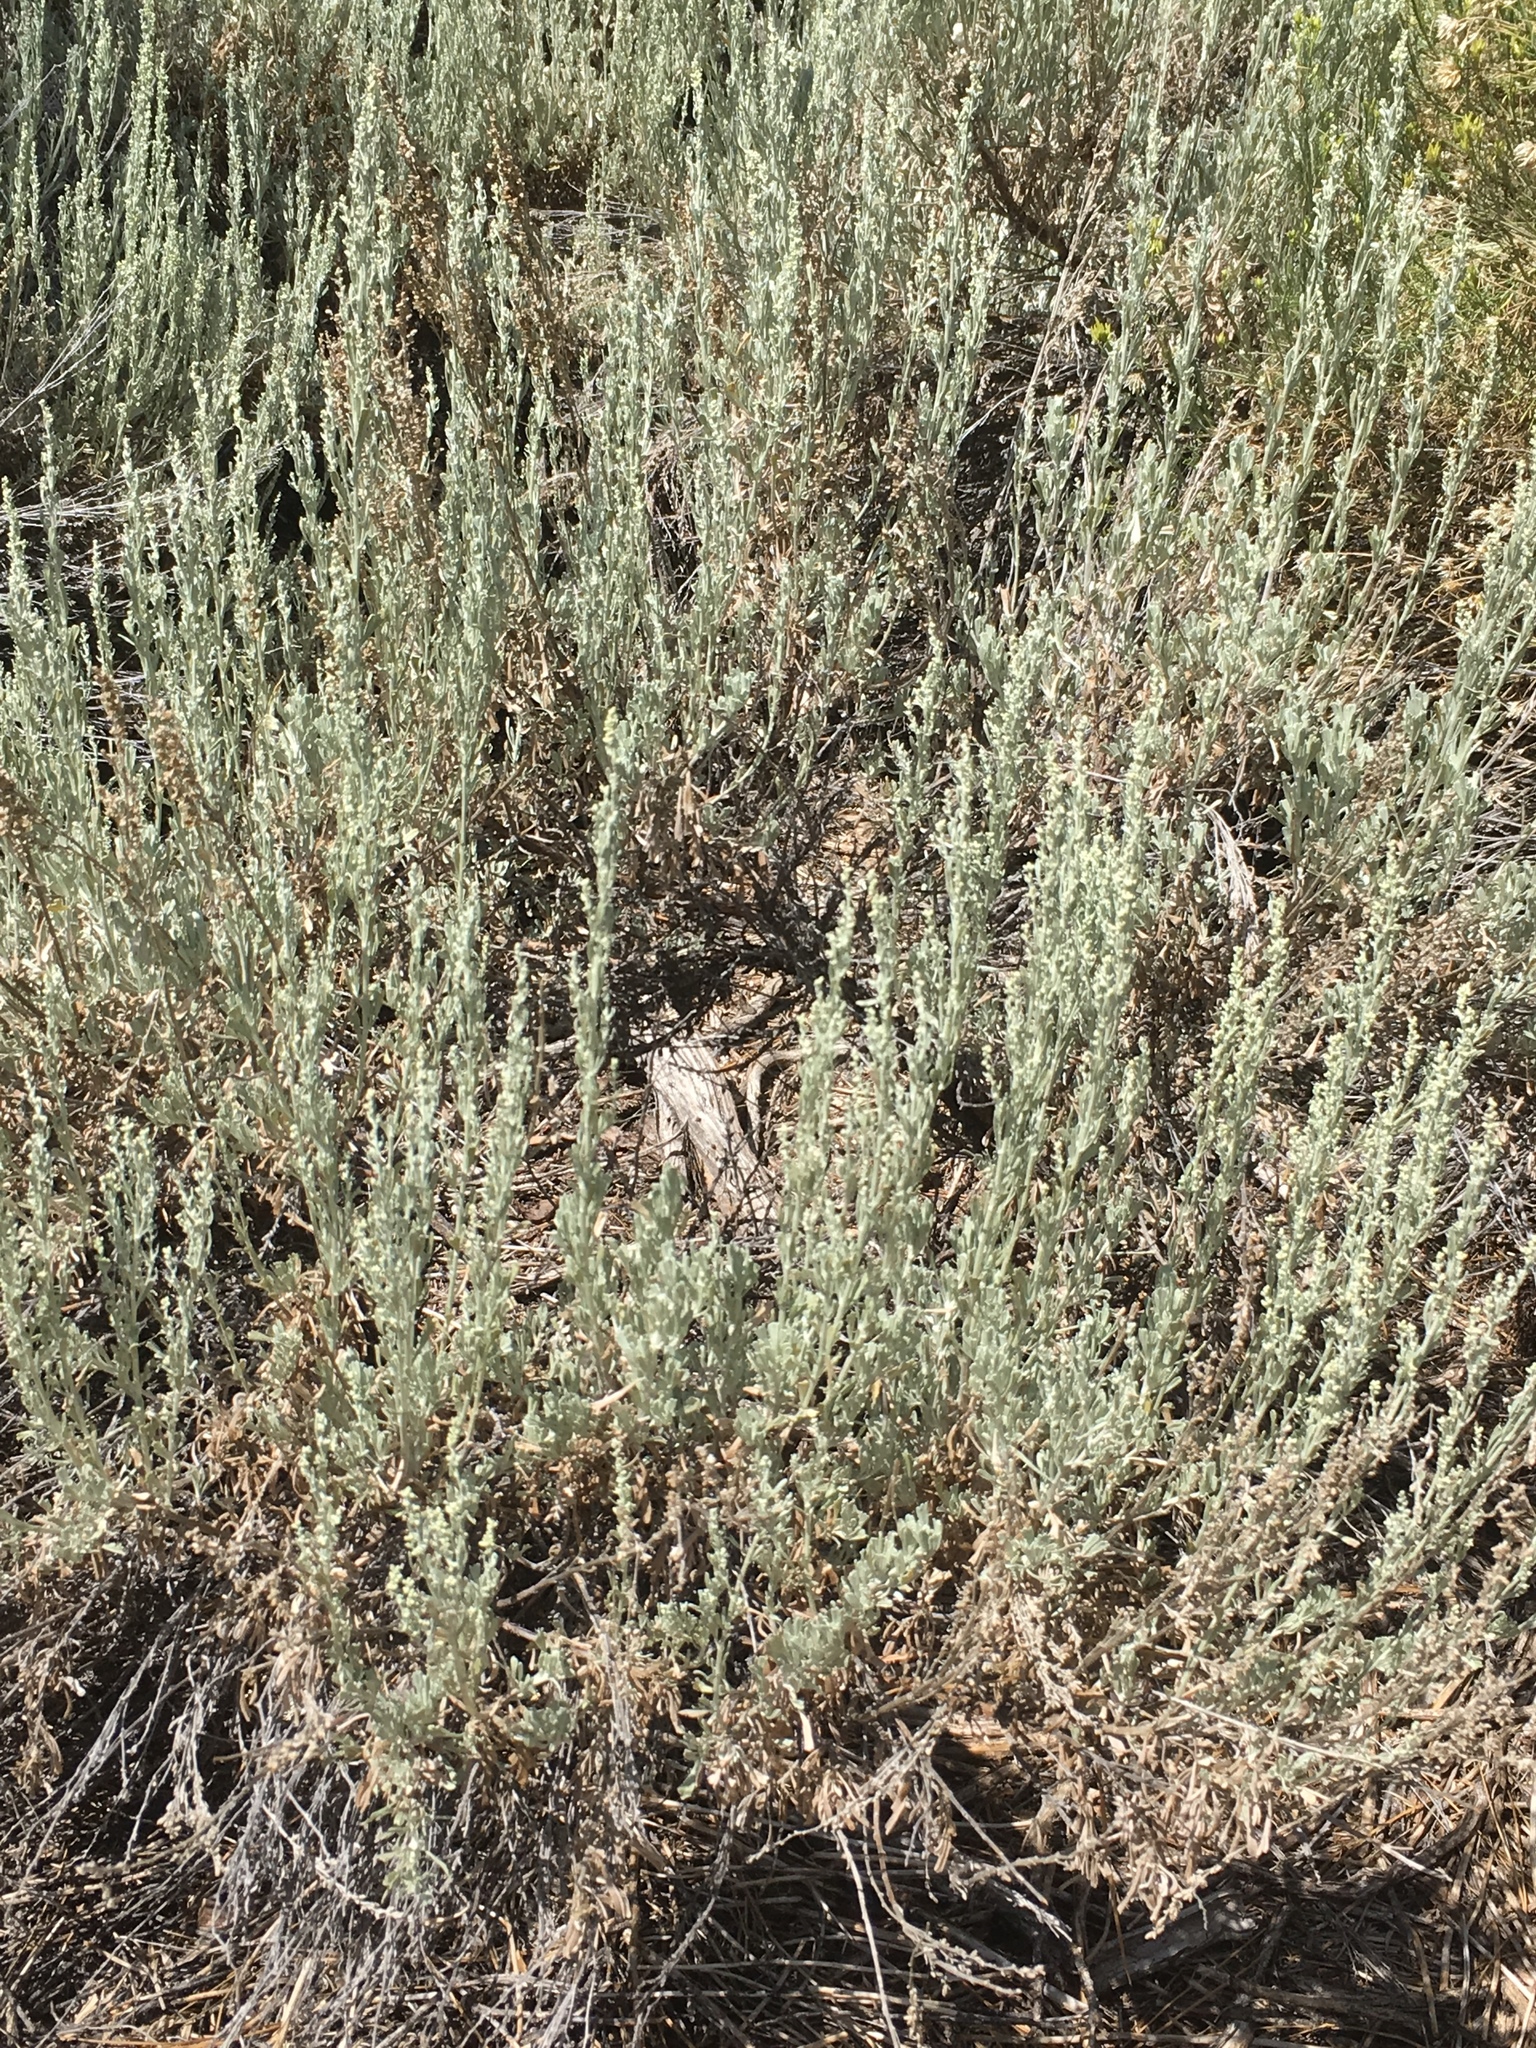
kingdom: Plantae
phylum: Tracheophyta
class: Magnoliopsida
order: Asterales
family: Asteraceae
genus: Artemisia
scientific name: Artemisia tridentata
